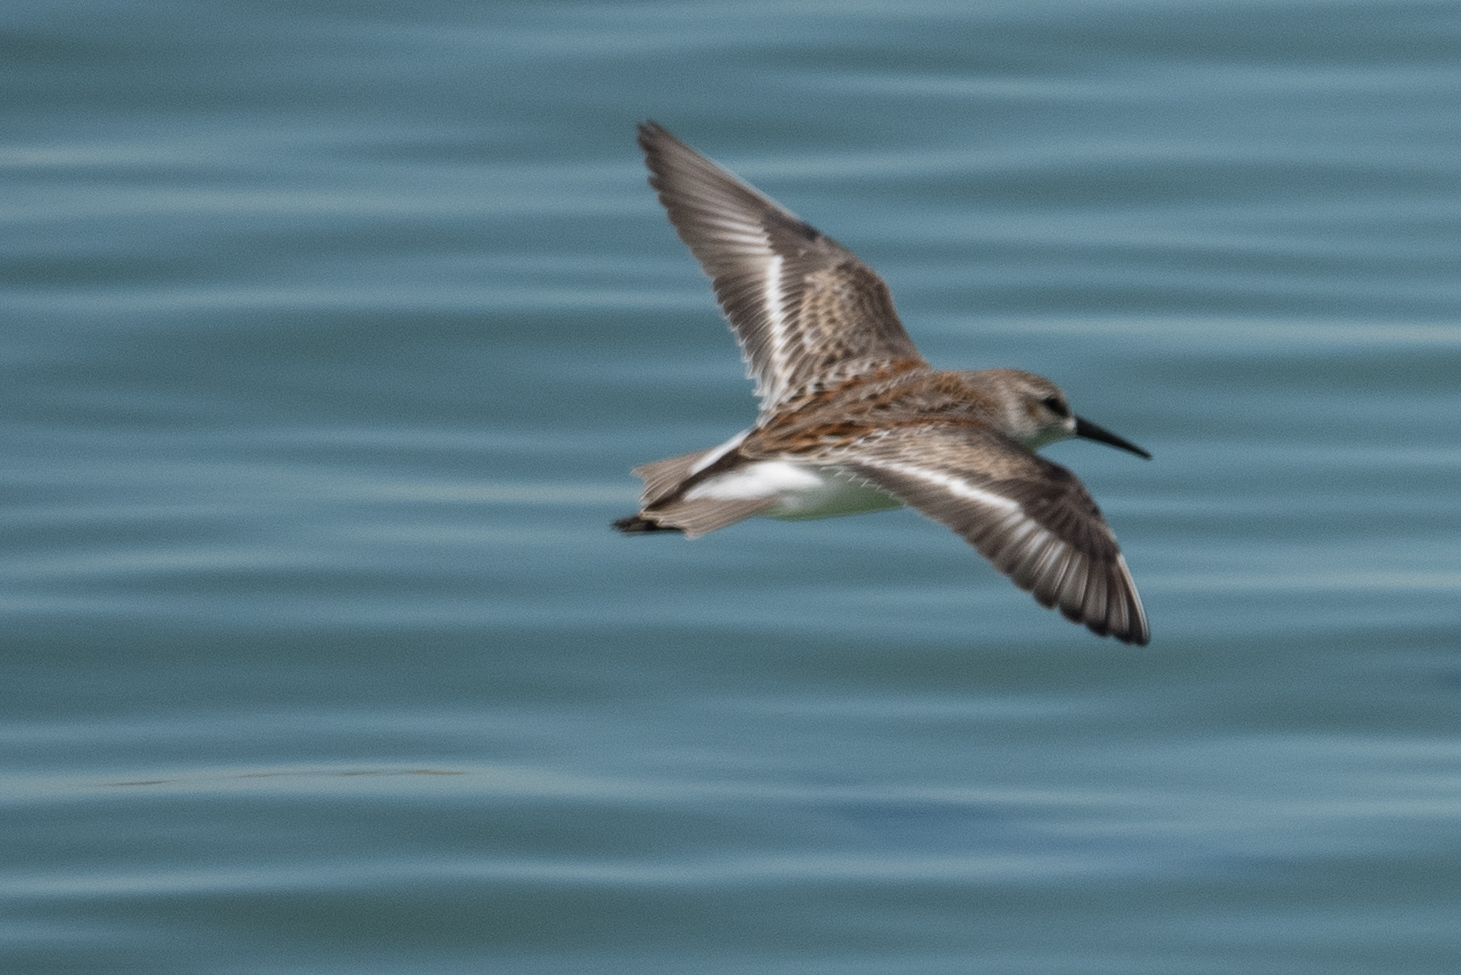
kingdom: Animalia
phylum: Chordata
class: Aves
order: Charadriiformes
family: Scolopacidae
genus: Calidris
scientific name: Calidris mauri
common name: Western sandpiper
